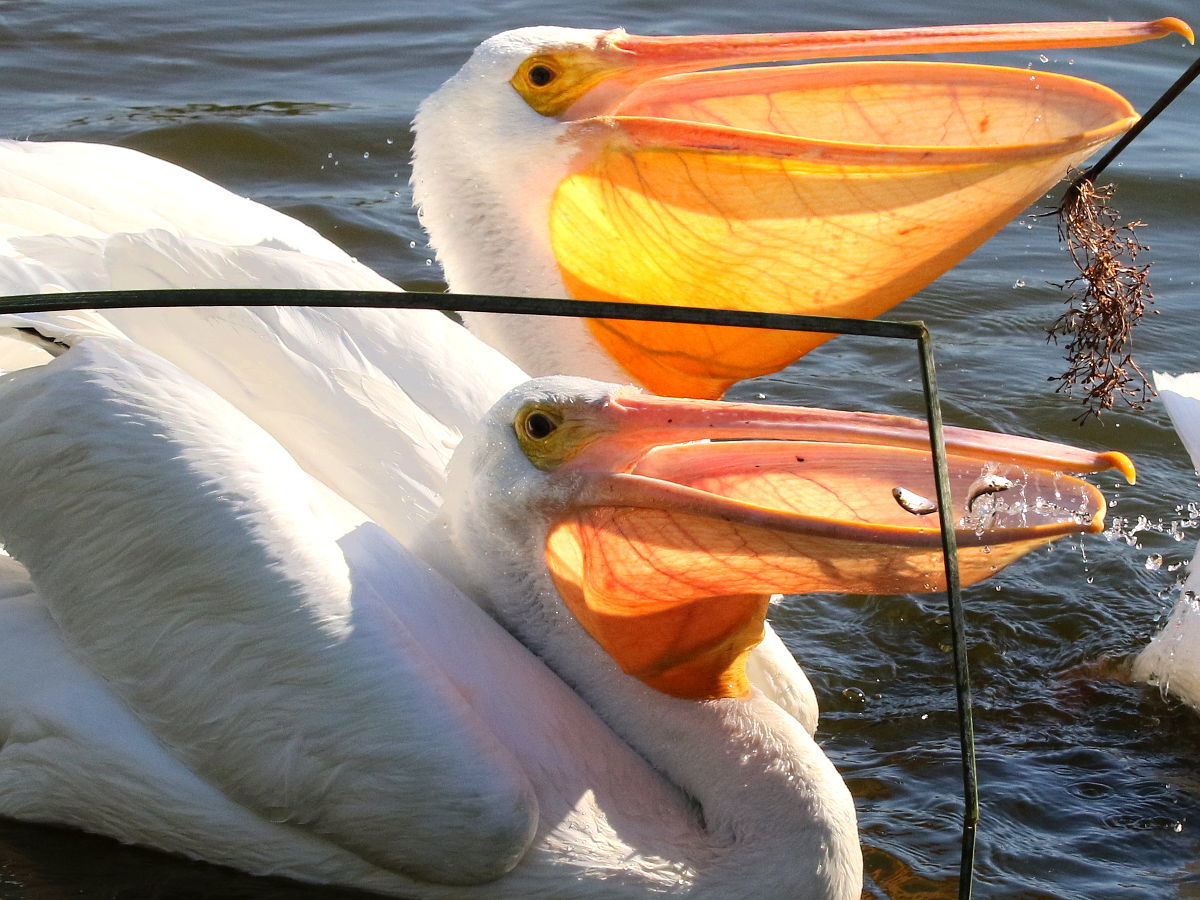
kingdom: Animalia
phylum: Chordata
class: Aves
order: Pelecaniformes
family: Pelecanidae
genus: Pelecanus
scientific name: Pelecanus erythrorhynchos
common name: American white pelican
